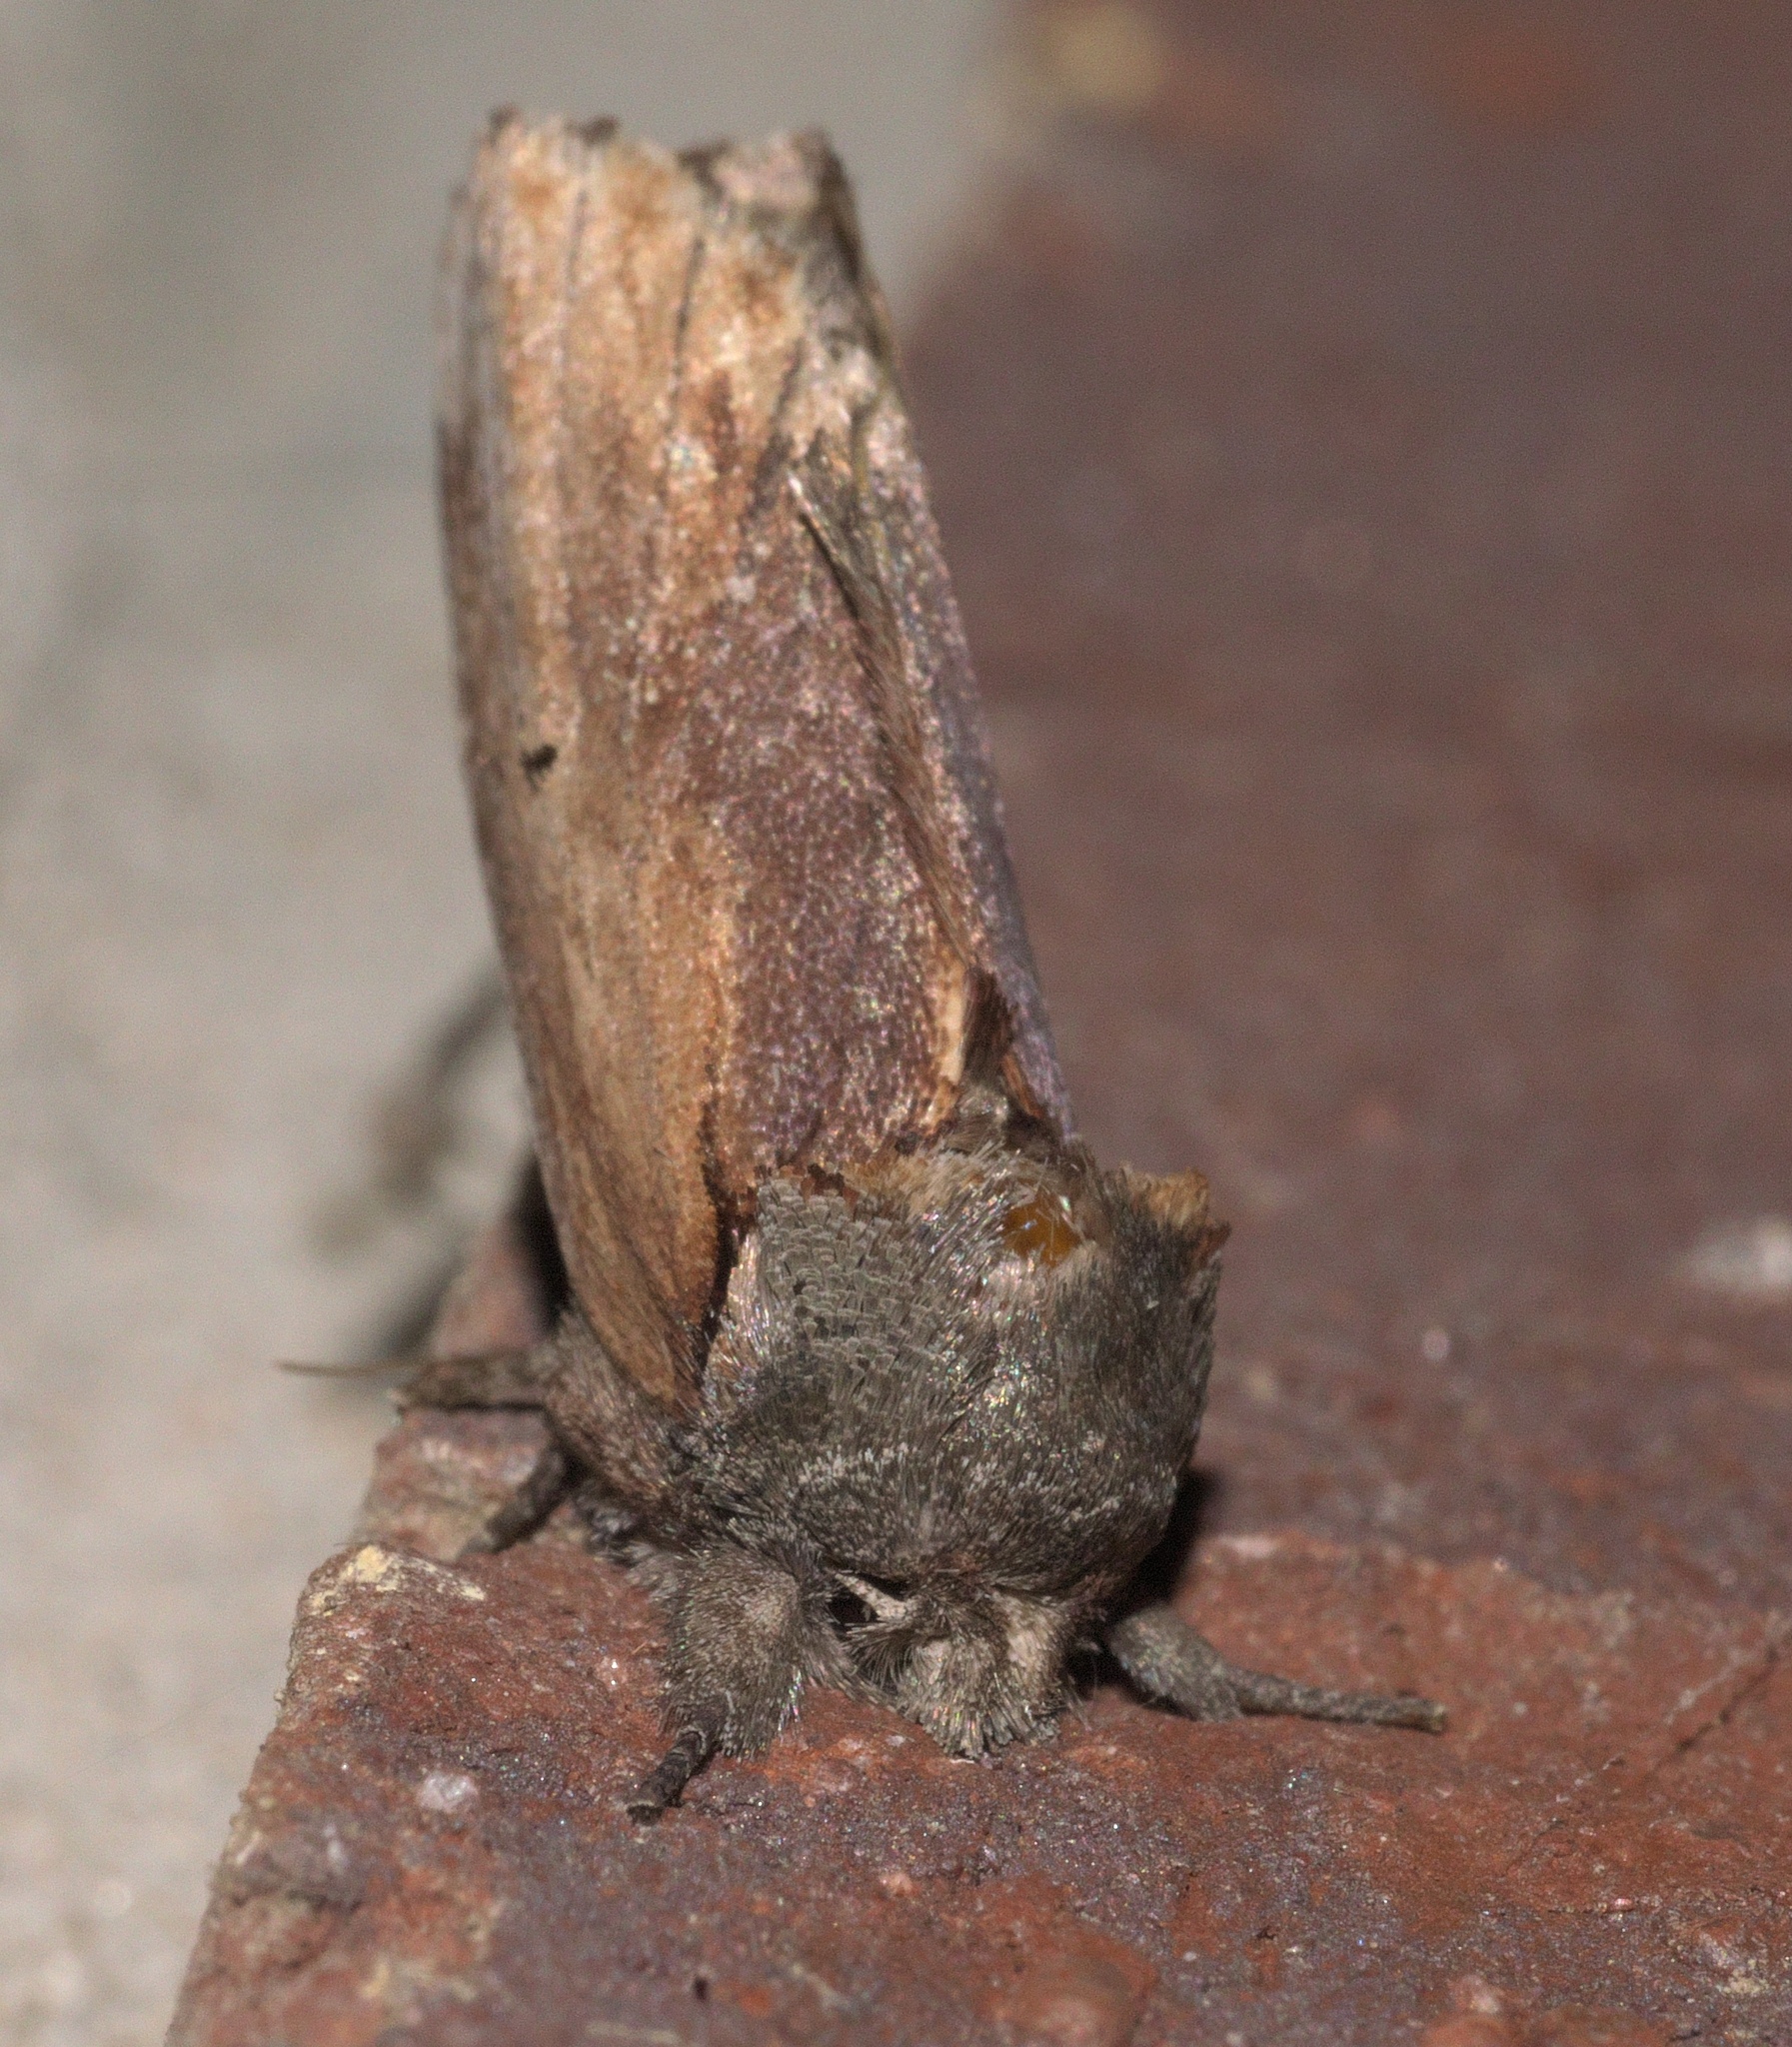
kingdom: Animalia
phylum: Arthropoda
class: Insecta
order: Lepidoptera
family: Notodontidae
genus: Schizura
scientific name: Schizura
